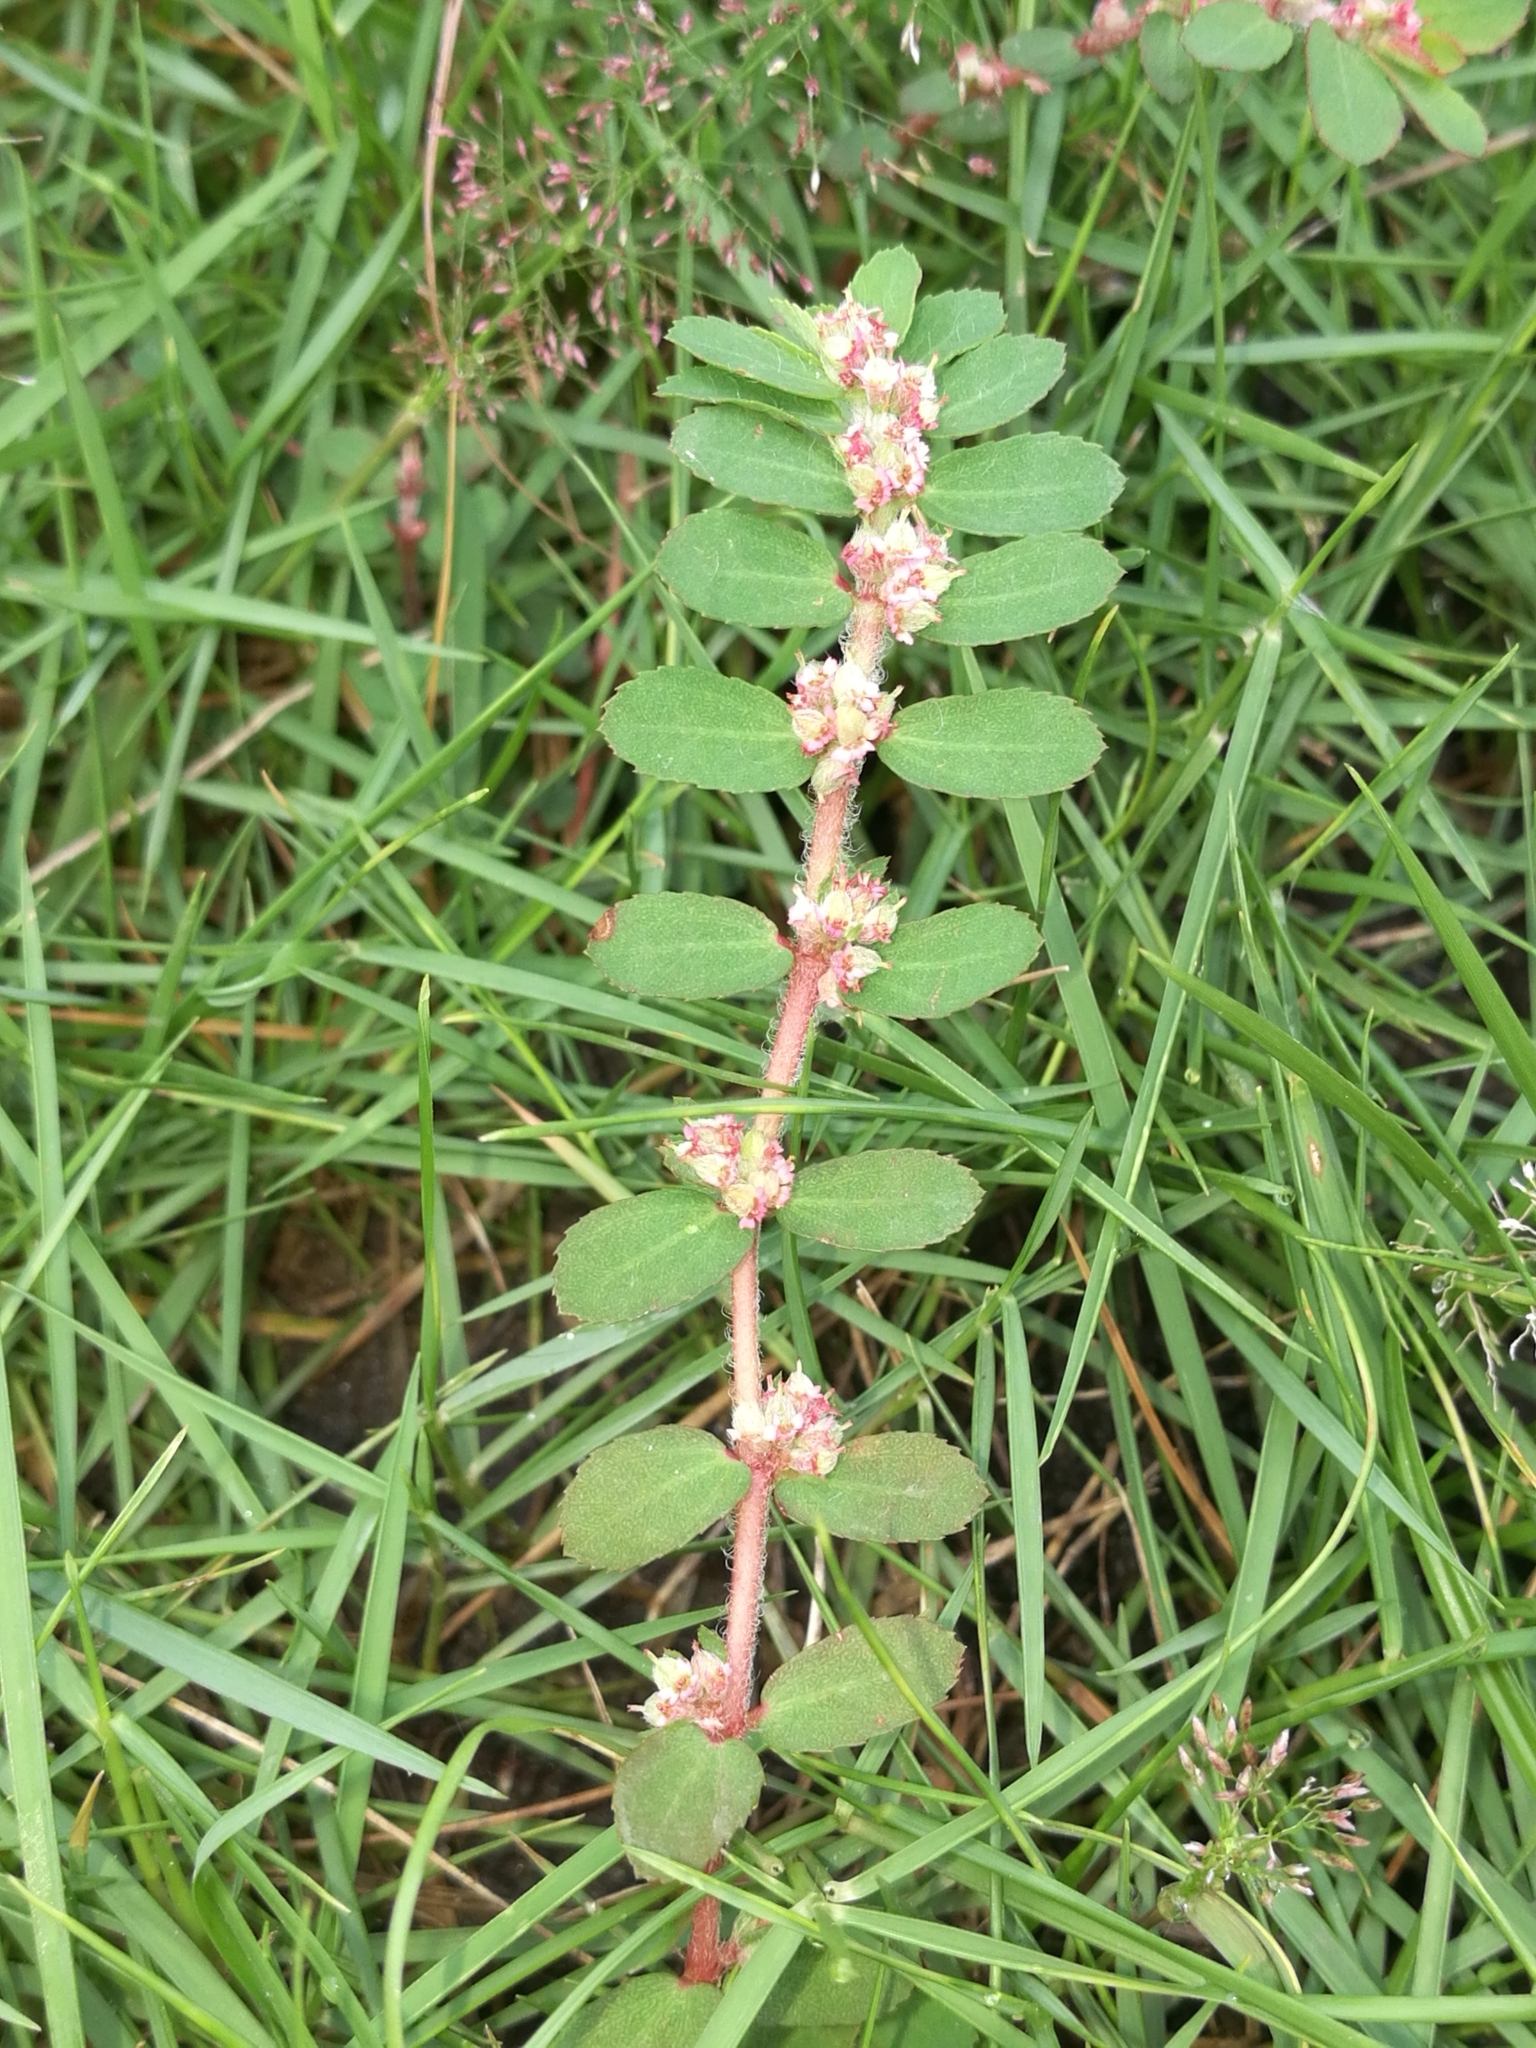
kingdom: Plantae
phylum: Tracheophyta
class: Magnoliopsida
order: Malpighiales
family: Euphorbiaceae
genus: Euphorbia
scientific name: Euphorbia thymifolia
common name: Gulf sandmat
